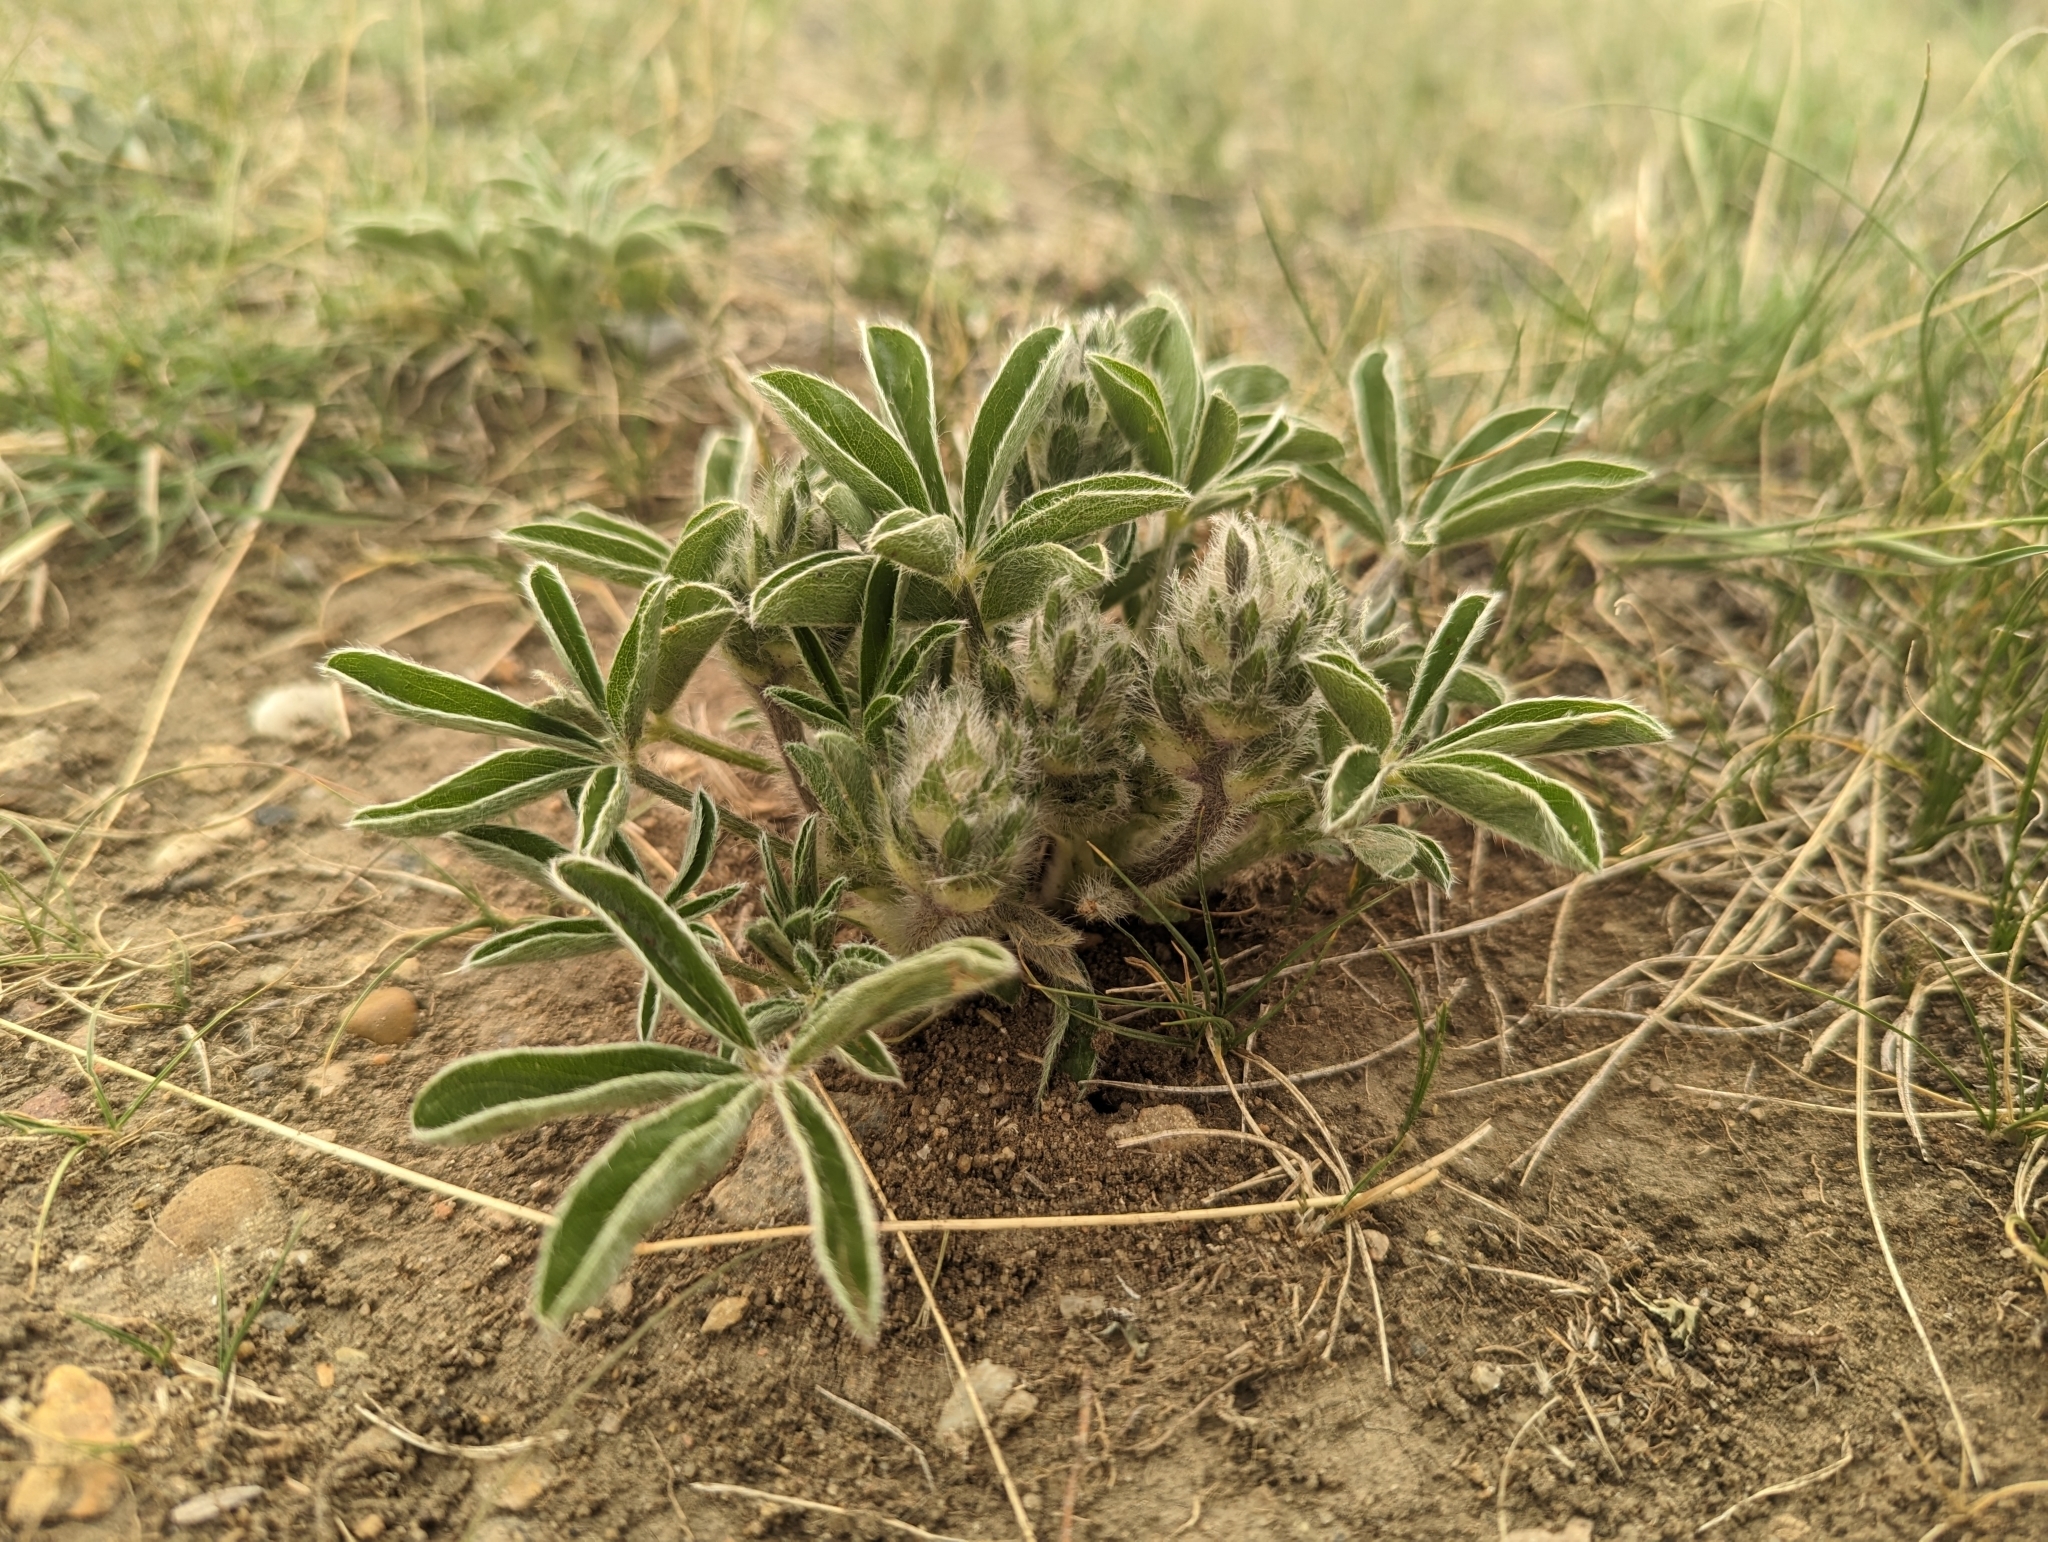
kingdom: Plantae
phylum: Tracheophyta
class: Magnoliopsida
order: Fabales
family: Fabaceae
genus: Pediomelum
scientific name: Pediomelum esculentum
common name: Indian-turnip
